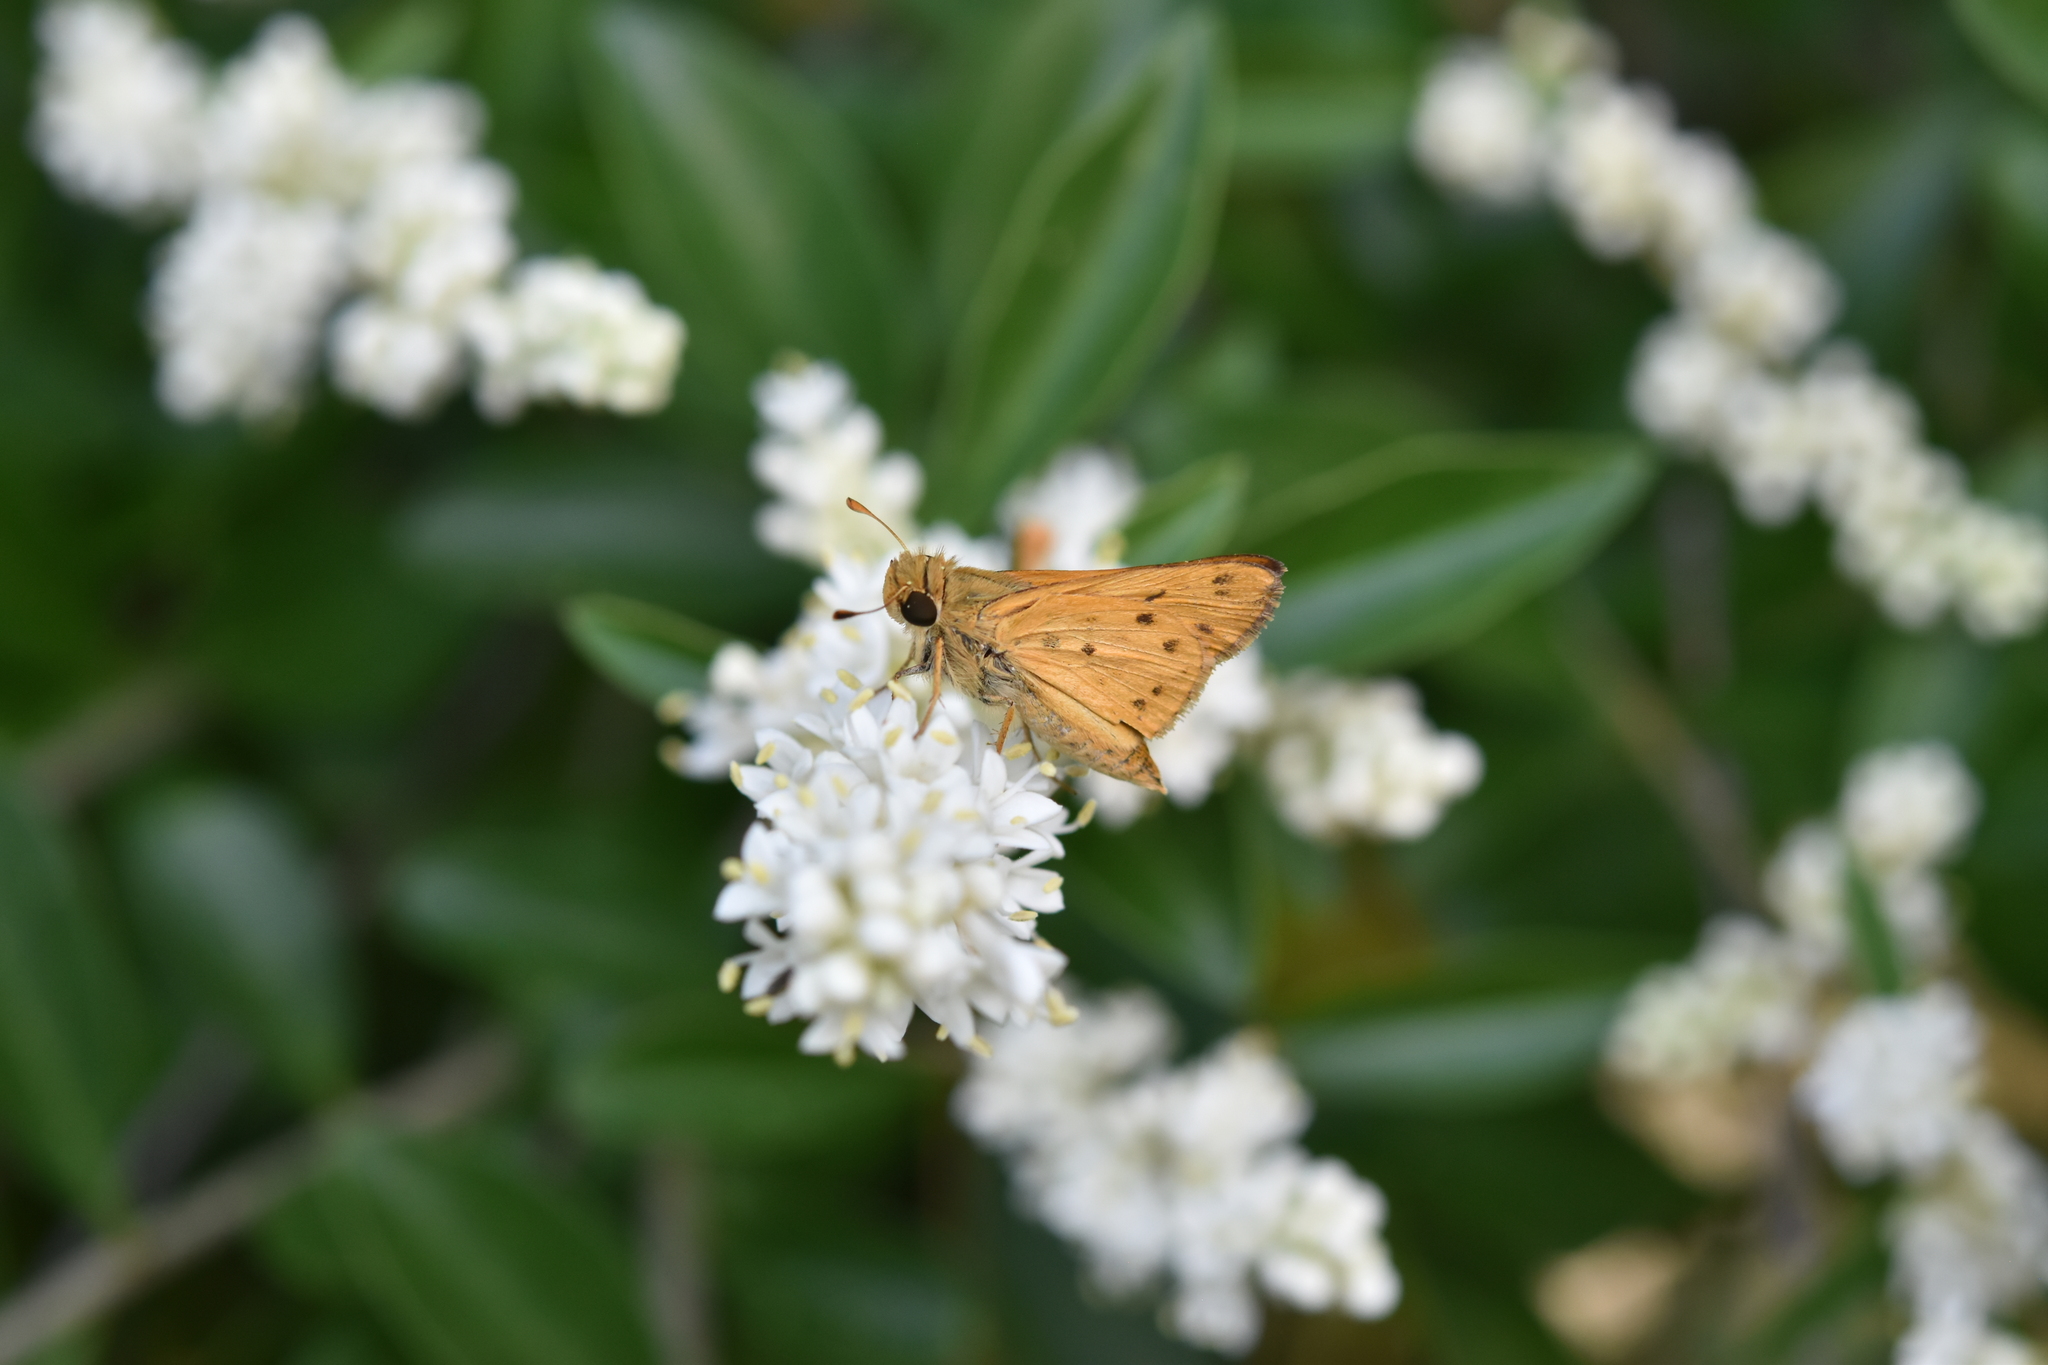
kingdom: Animalia
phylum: Arthropoda
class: Insecta
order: Lepidoptera
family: Hesperiidae
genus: Hylephila
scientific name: Hylephila phyleus
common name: Fiery skipper
